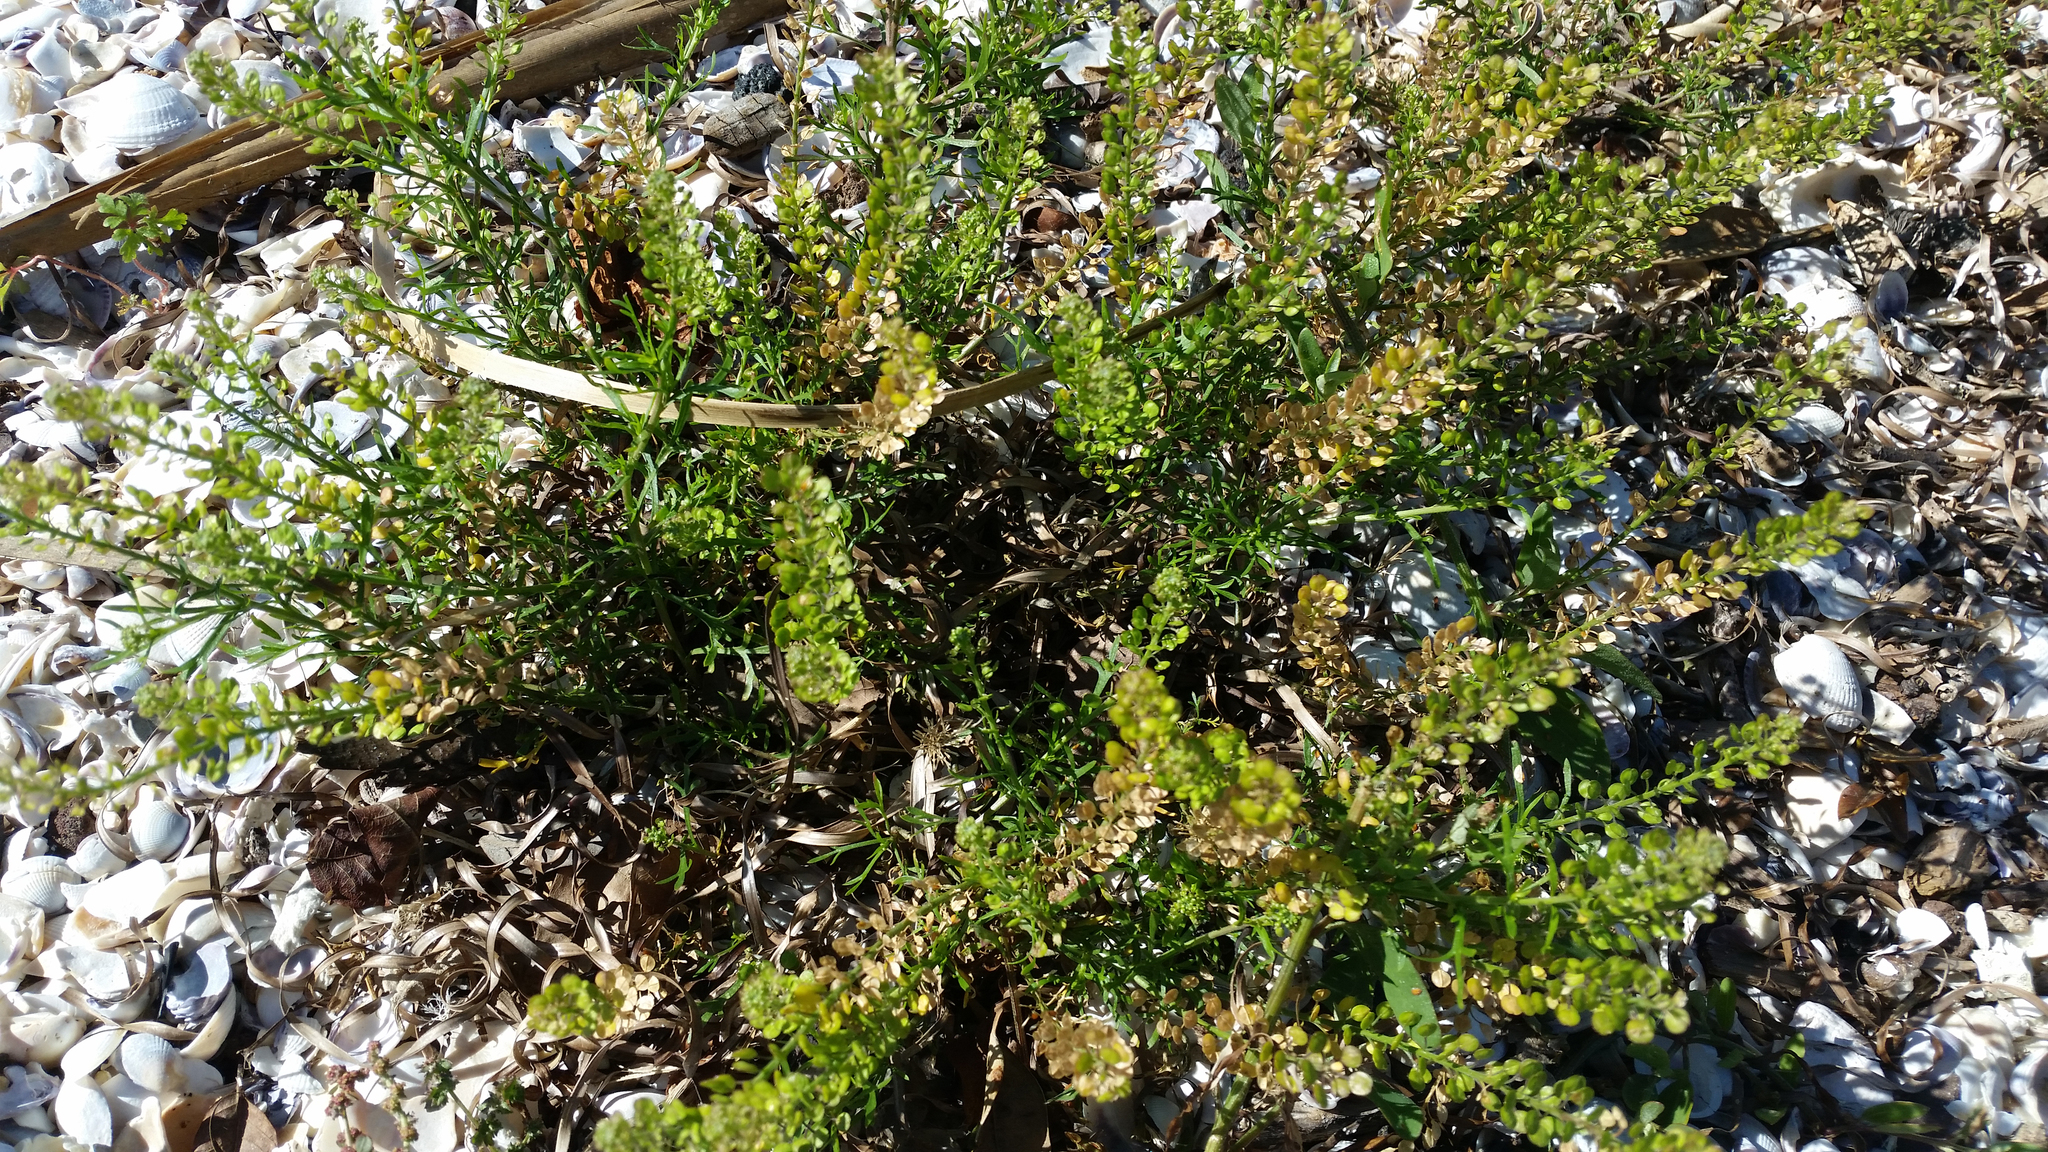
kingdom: Plantae
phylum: Tracheophyta
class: Magnoliopsida
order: Brassicales
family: Brassicaceae
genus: Lepidium
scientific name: Lepidium bonariense
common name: Argentine pepperwort
